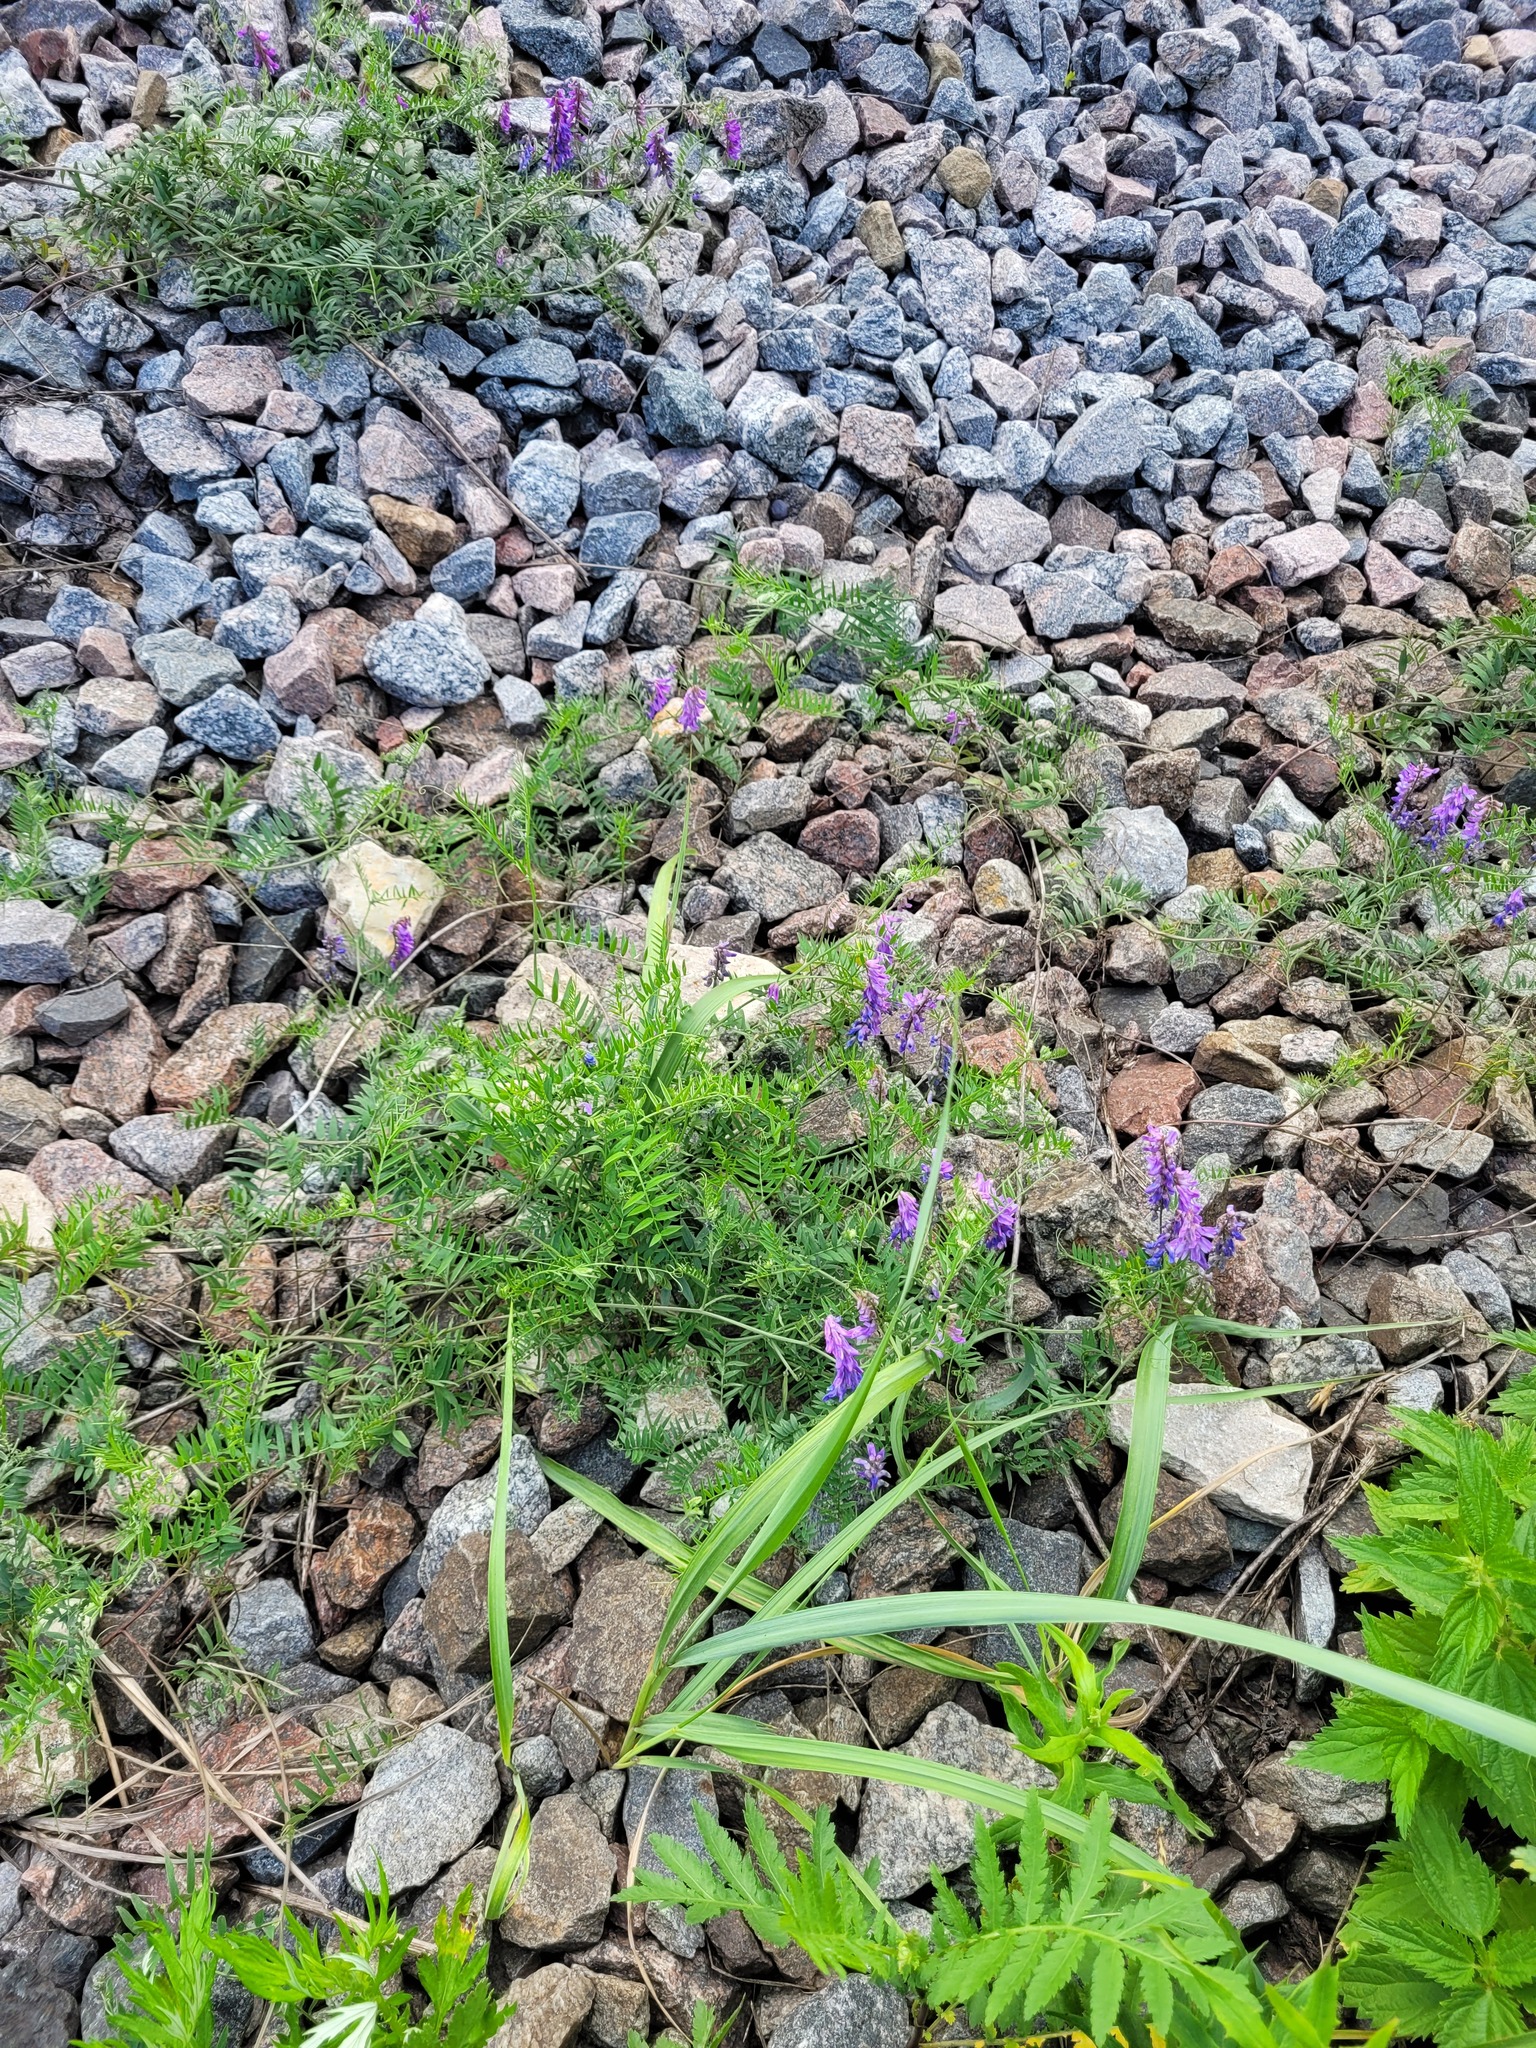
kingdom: Plantae
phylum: Tracheophyta
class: Magnoliopsida
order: Fabales
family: Fabaceae
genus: Vicia
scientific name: Vicia cracca
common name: Bird vetch
